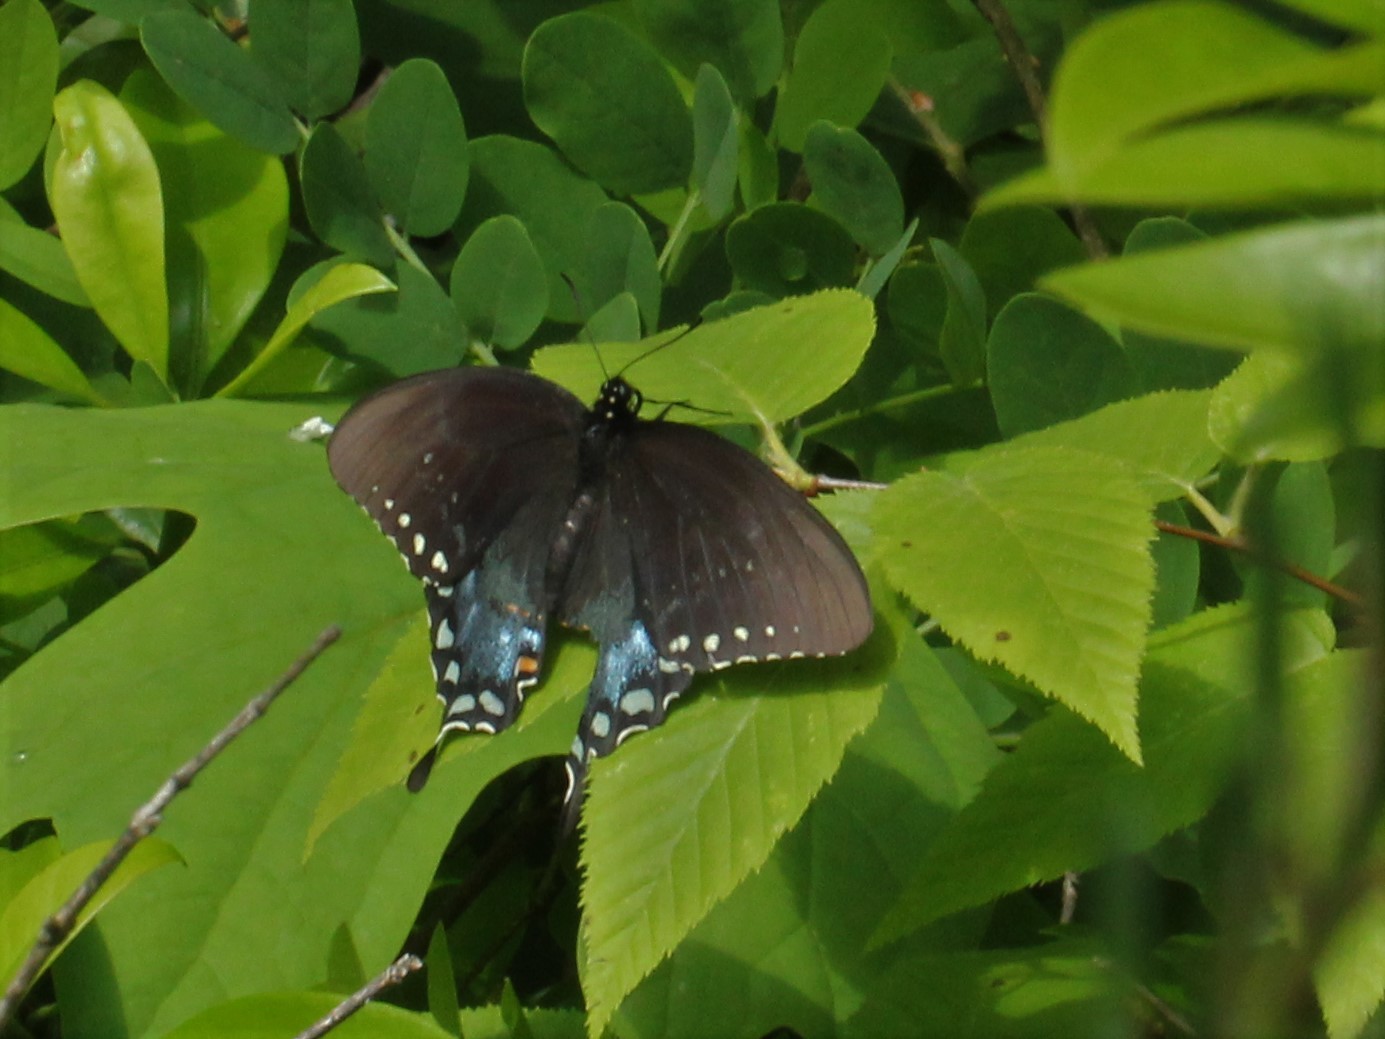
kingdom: Animalia
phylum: Arthropoda
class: Insecta
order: Lepidoptera
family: Papilionidae
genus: Papilio
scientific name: Papilio troilus
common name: Spicebush swallowtail
